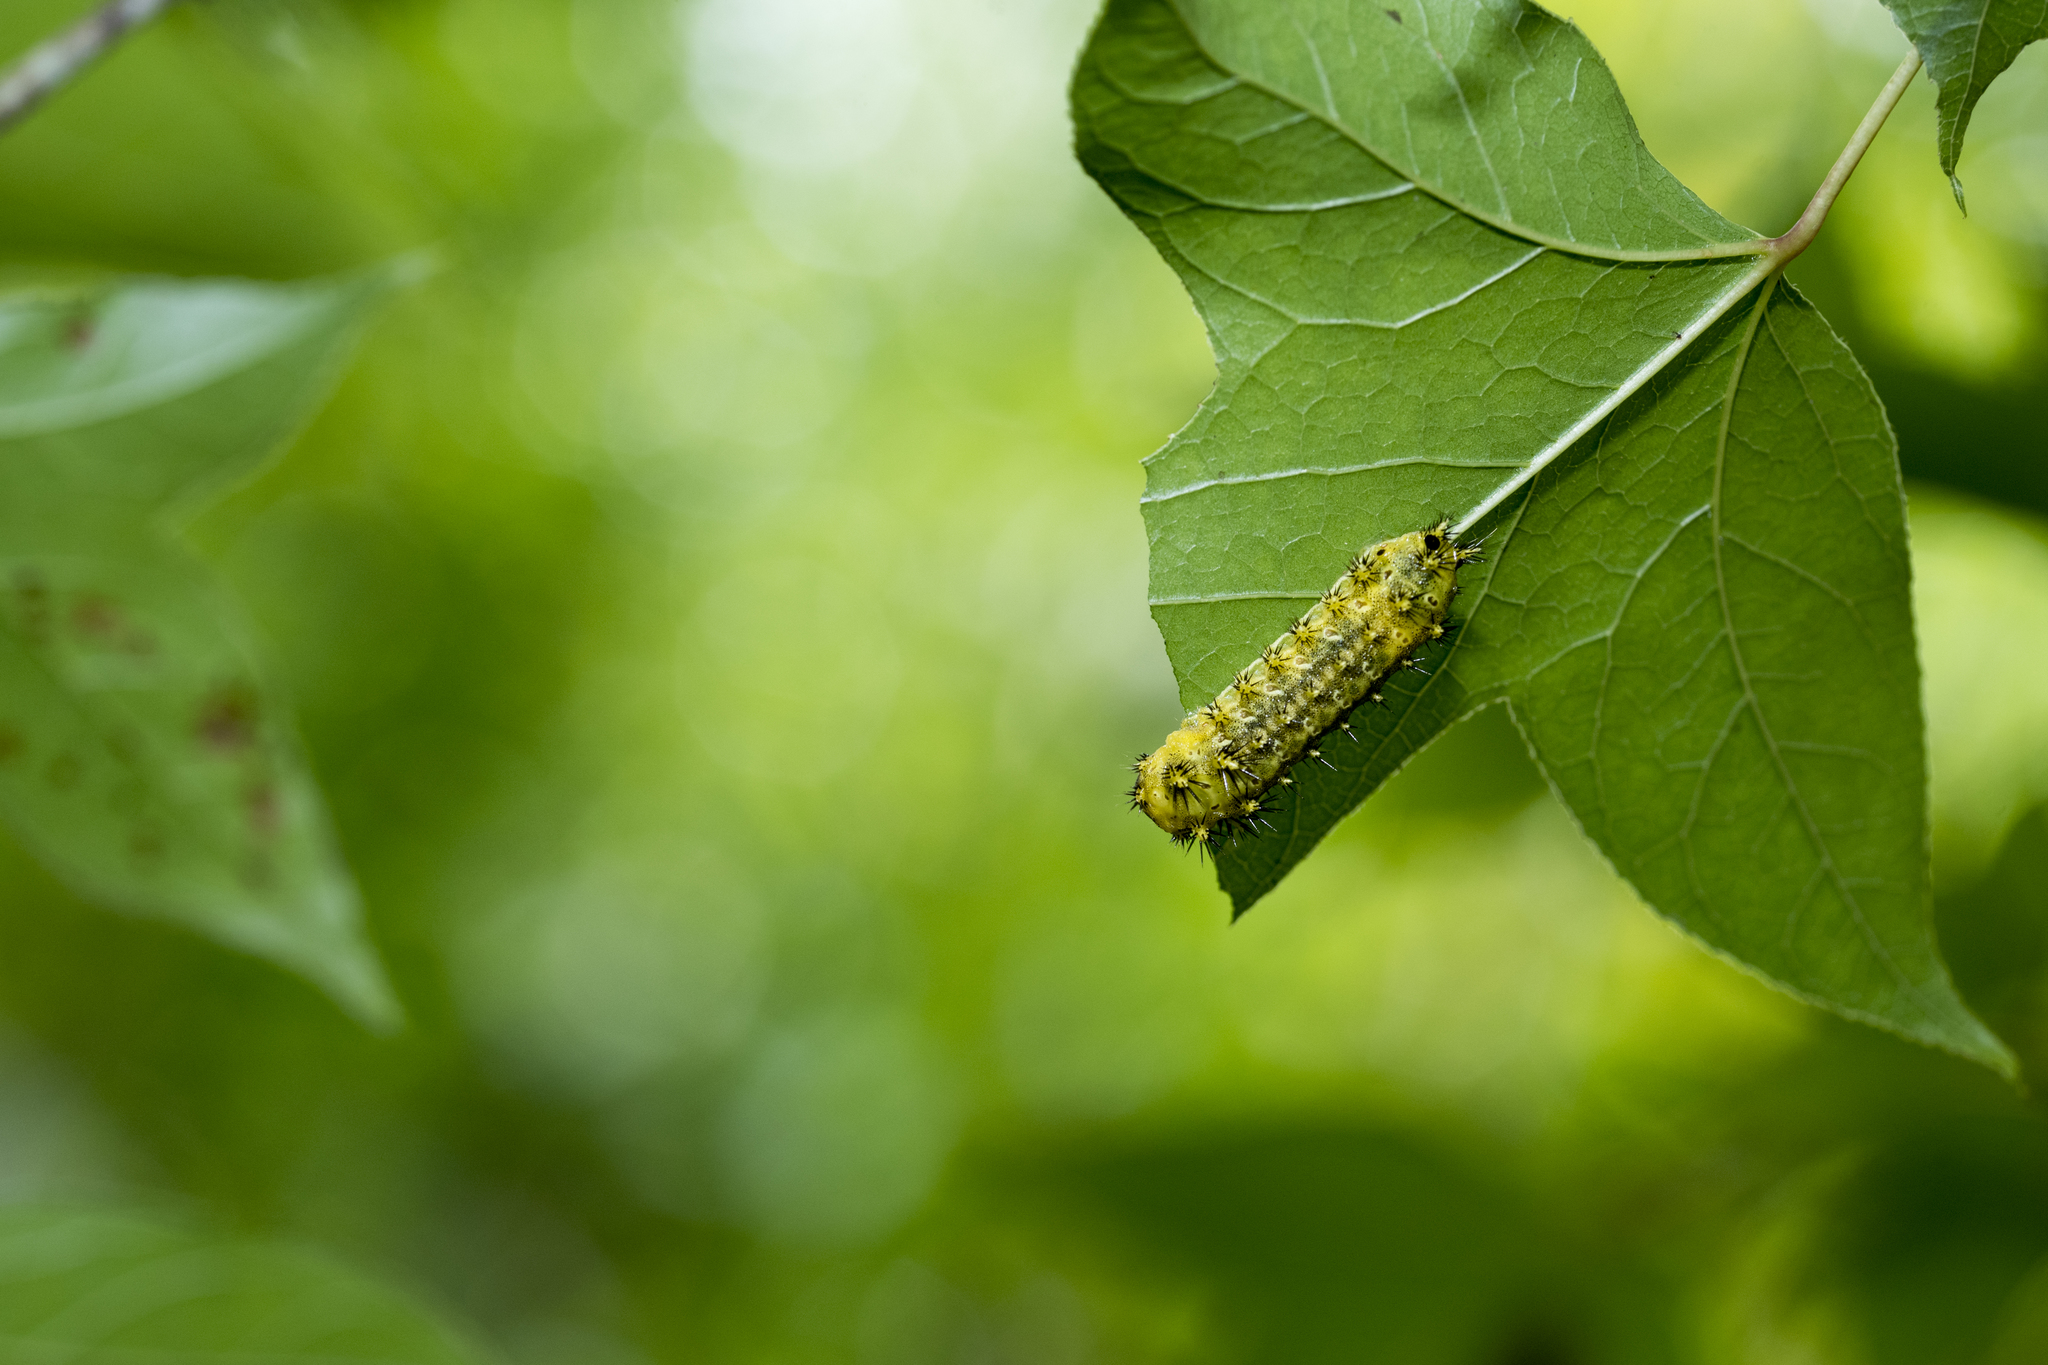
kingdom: Animalia
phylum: Arthropoda
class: Insecta
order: Lepidoptera
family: Limacodidae
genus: Scopelodes
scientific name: Scopelodes contracta
